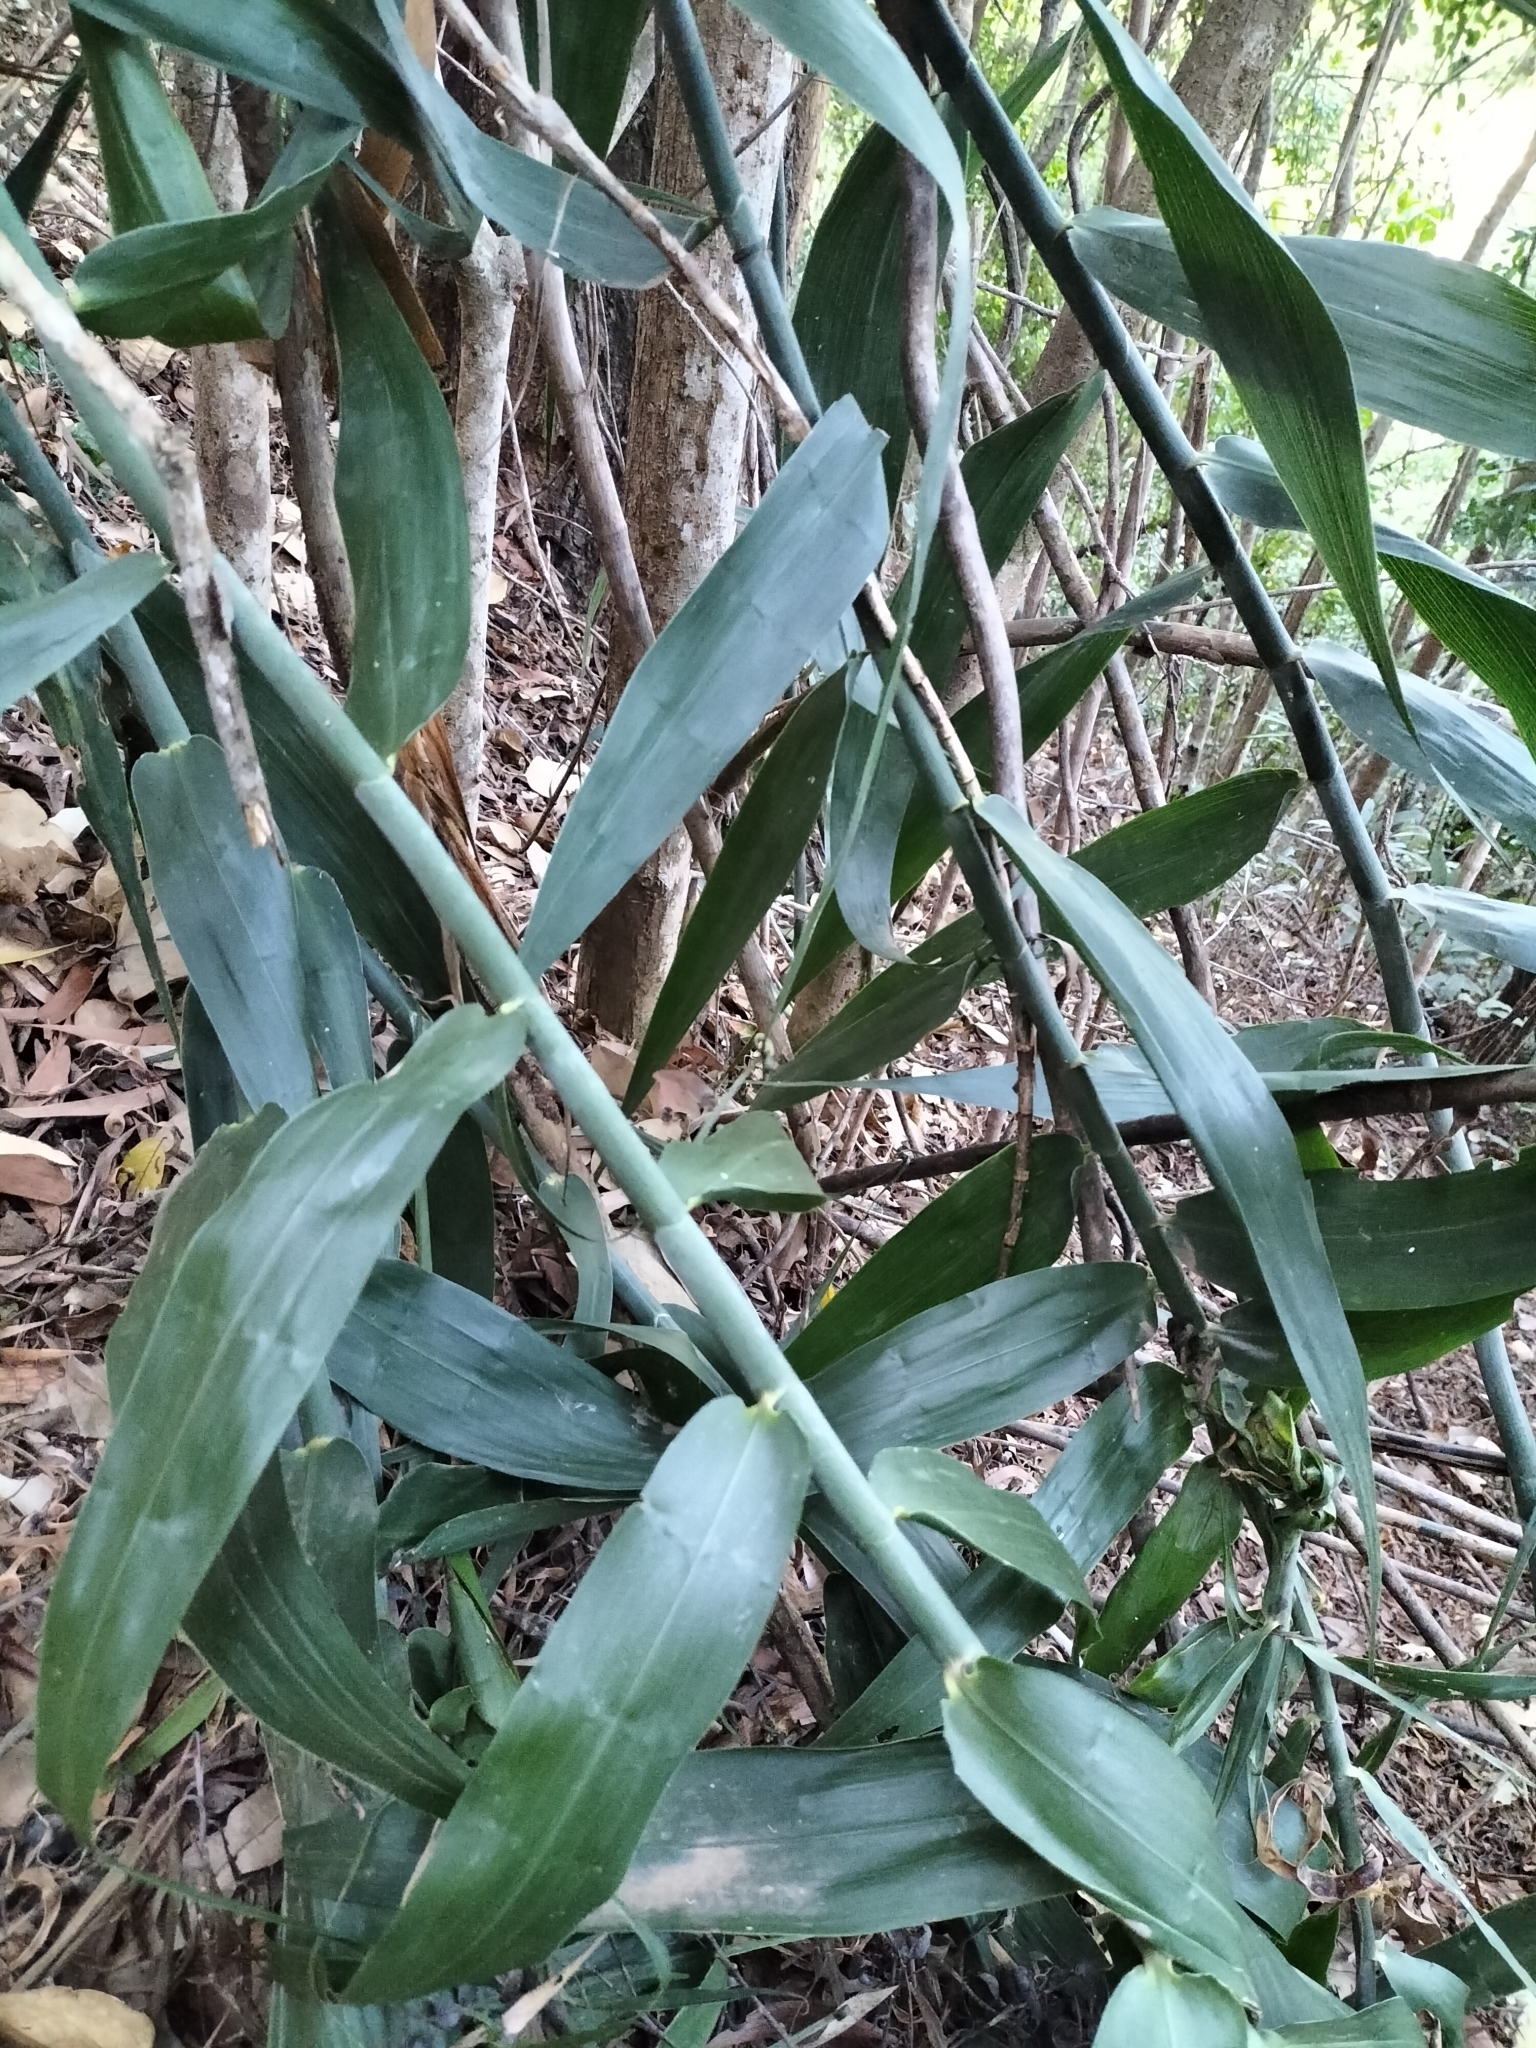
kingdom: Plantae
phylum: Tracheophyta
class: Liliopsida
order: Poales
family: Flagellariaceae
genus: Flagellaria
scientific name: Flagellaria indica
